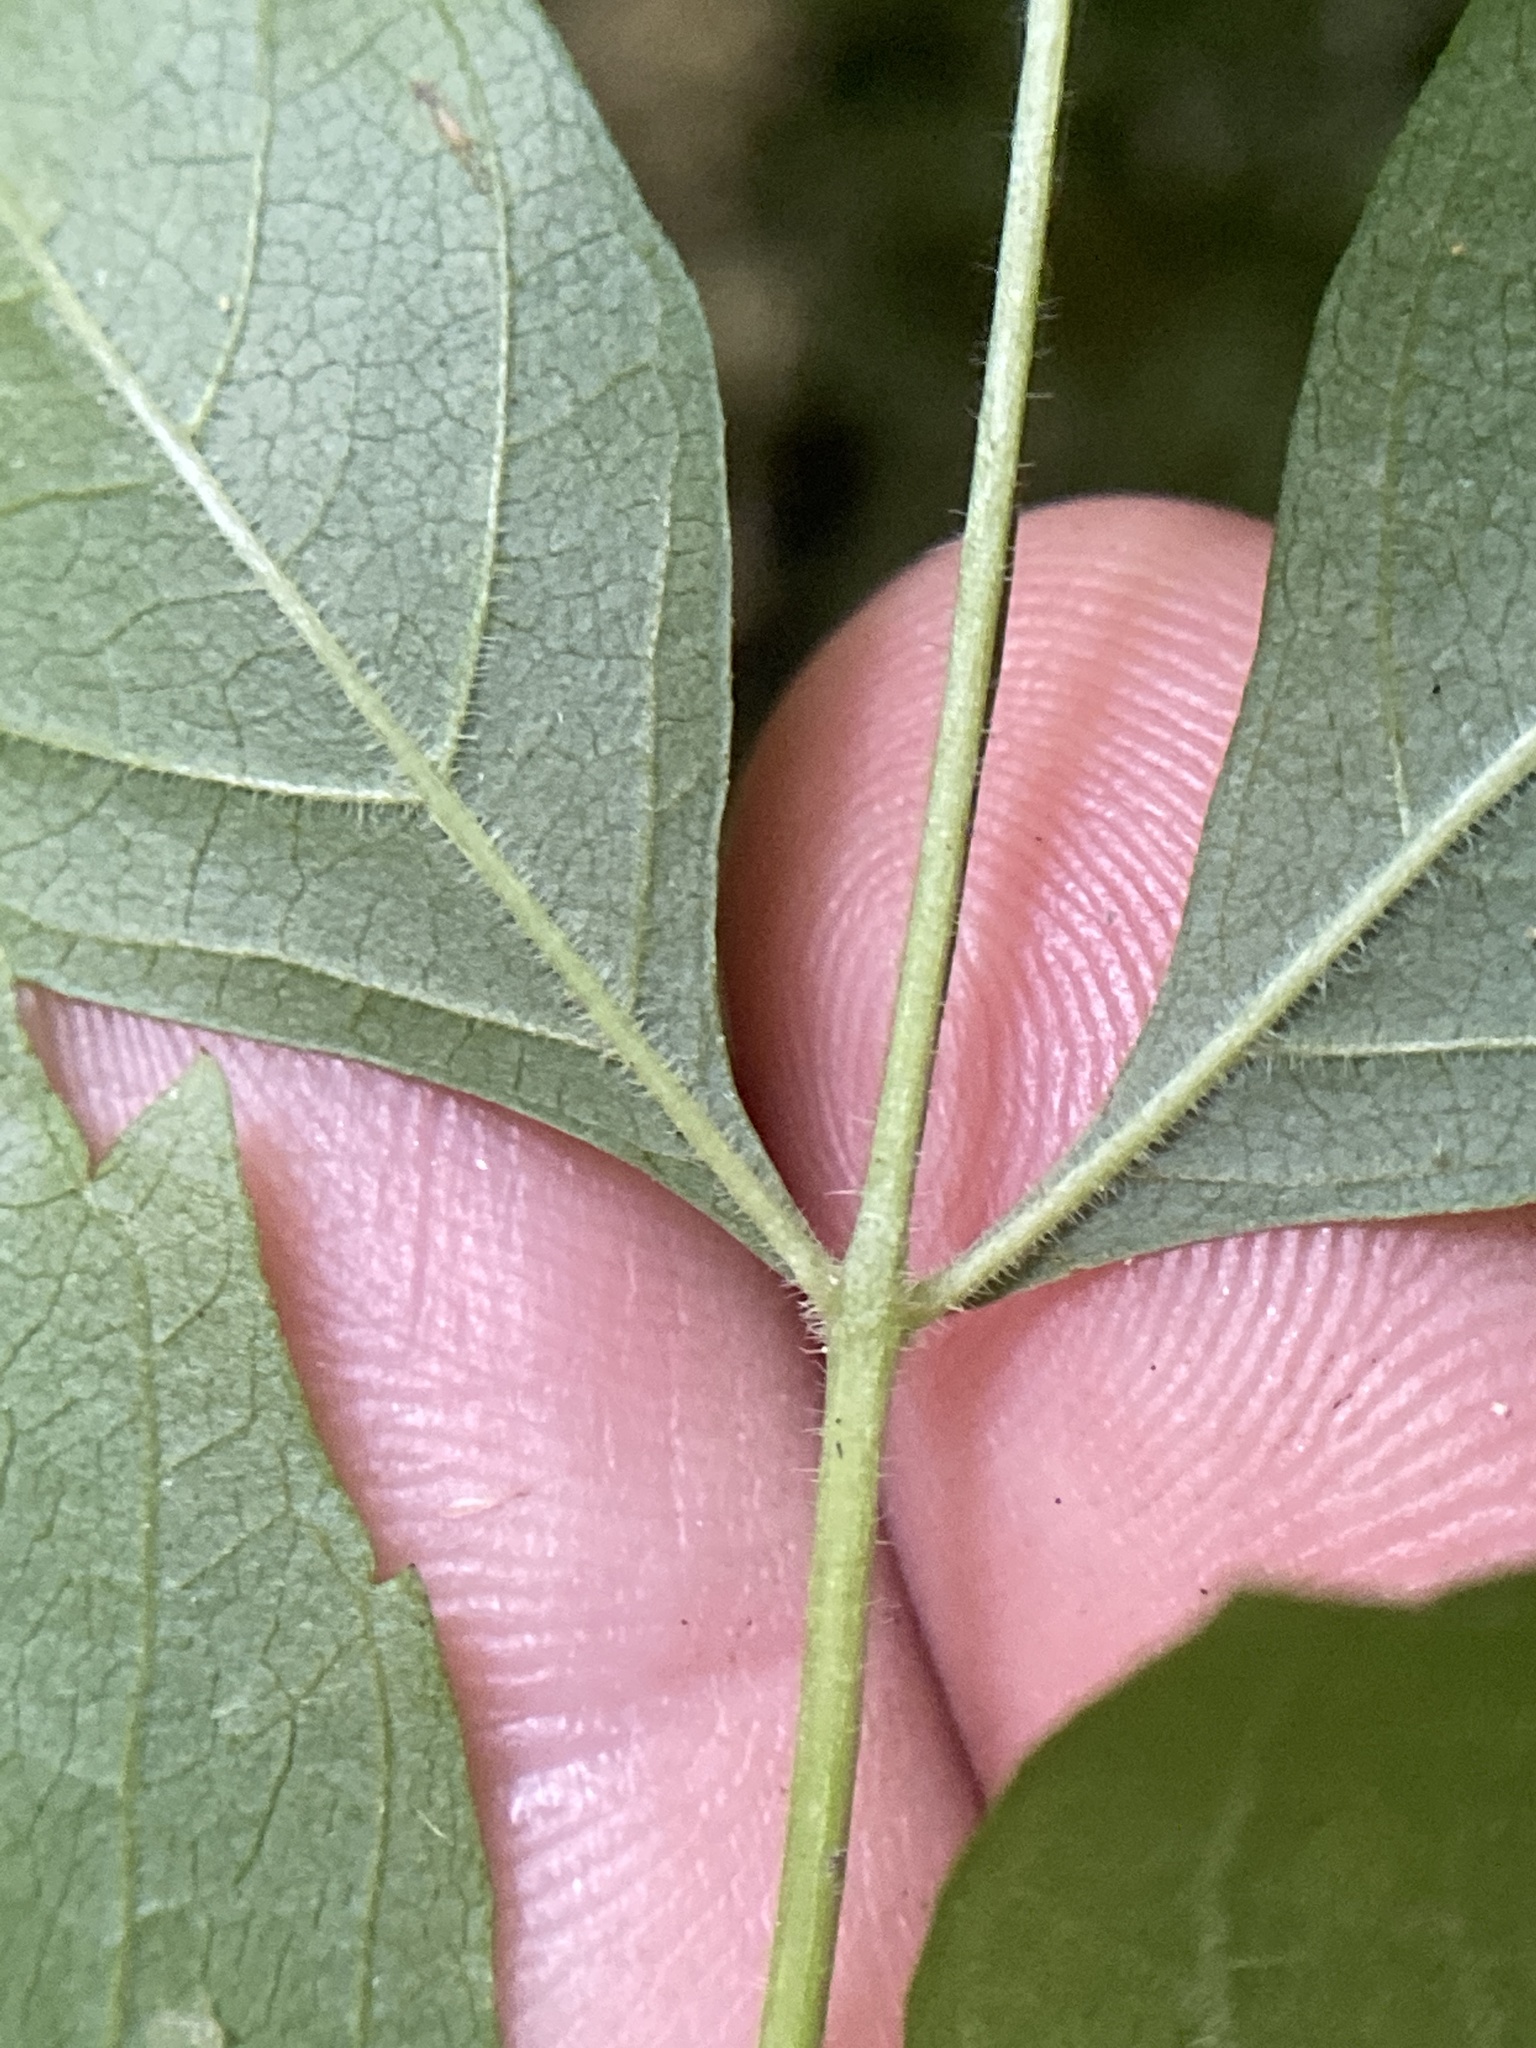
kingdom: Plantae
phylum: Tracheophyta
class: Magnoliopsida
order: Lamiales
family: Bignoniaceae
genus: Campsis
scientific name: Campsis radicans
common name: Trumpet-creeper
